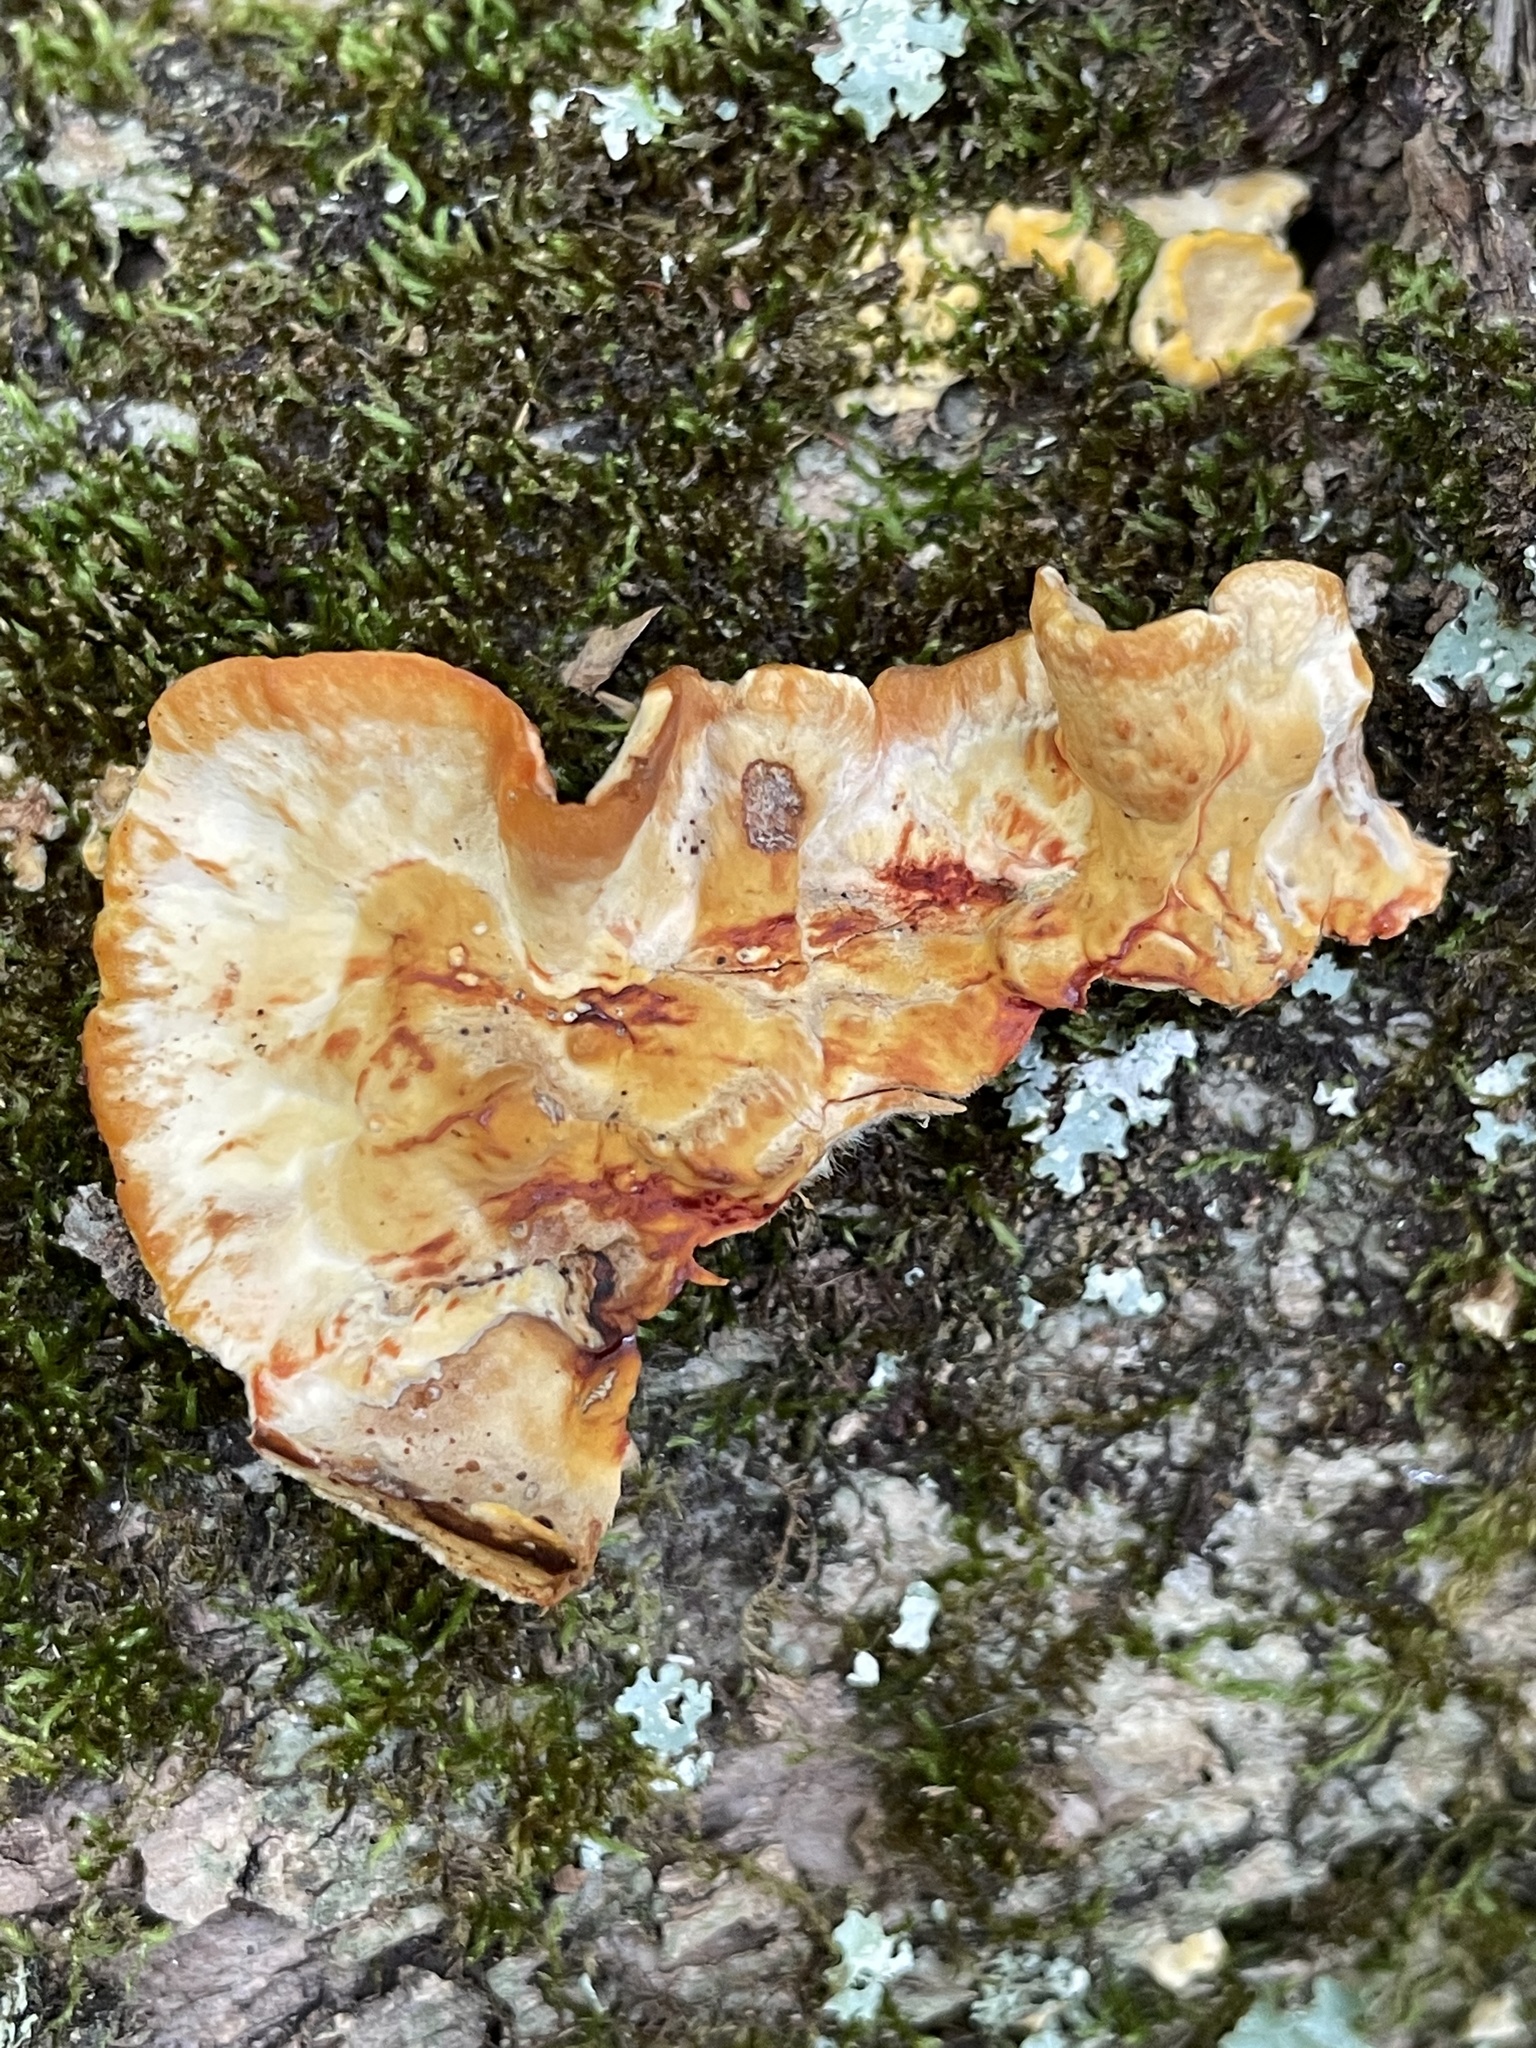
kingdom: Fungi
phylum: Basidiomycota
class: Agaricomycetes
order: Russulales
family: Stereaceae
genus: Stereum
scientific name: Stereum gausapatum
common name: Bleeding oak crust
